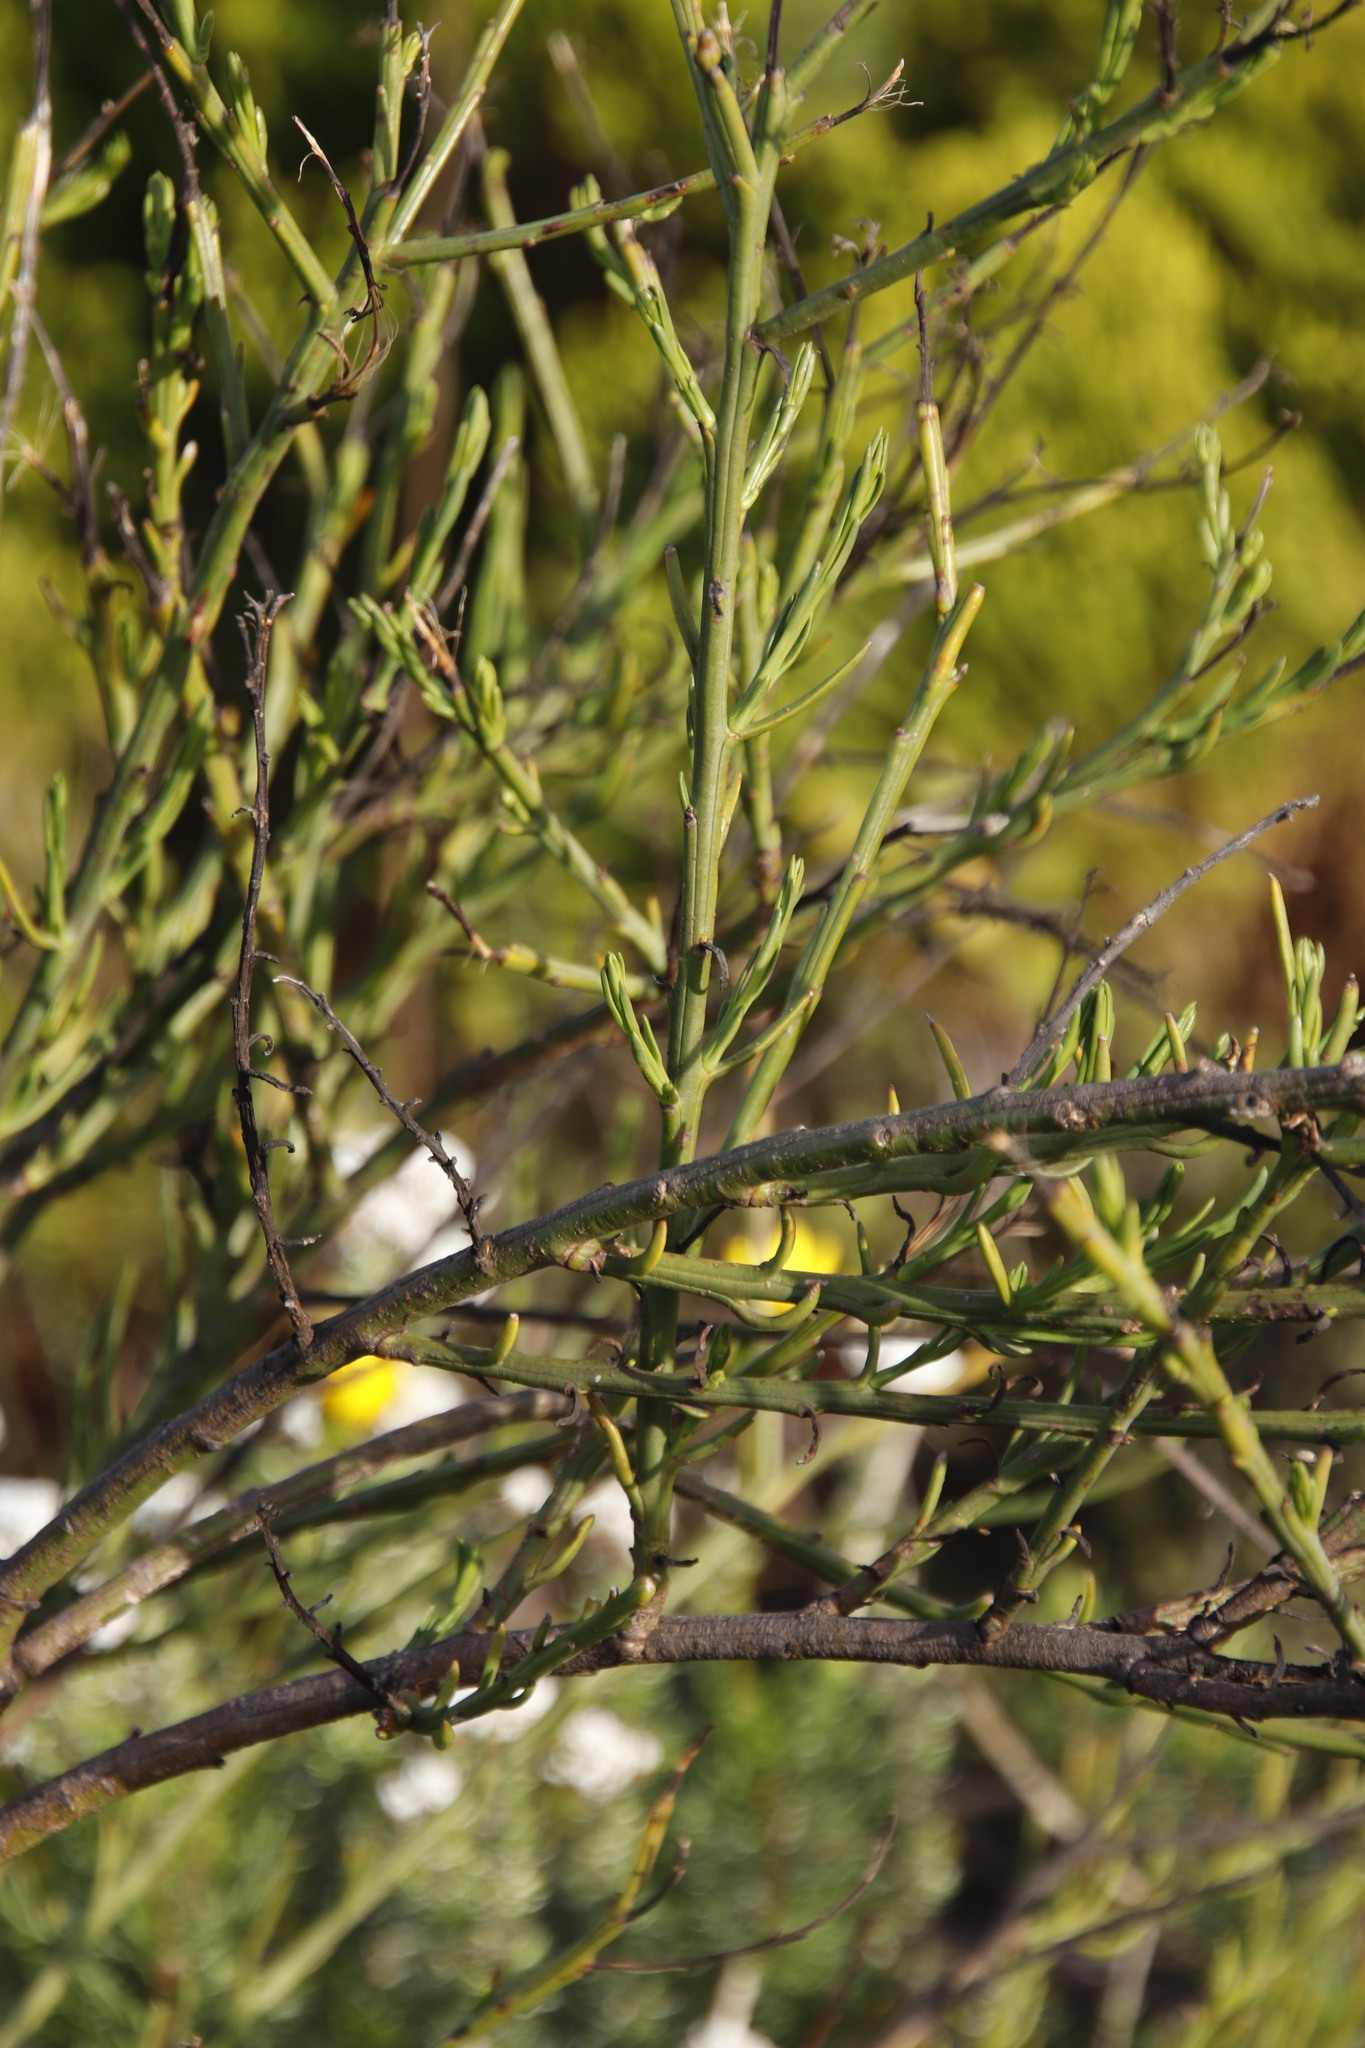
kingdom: Plantae
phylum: Tracheophyta
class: Magnoliopsida
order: Santalales
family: Thesiaceae
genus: Thesium
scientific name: Thesium strictum
